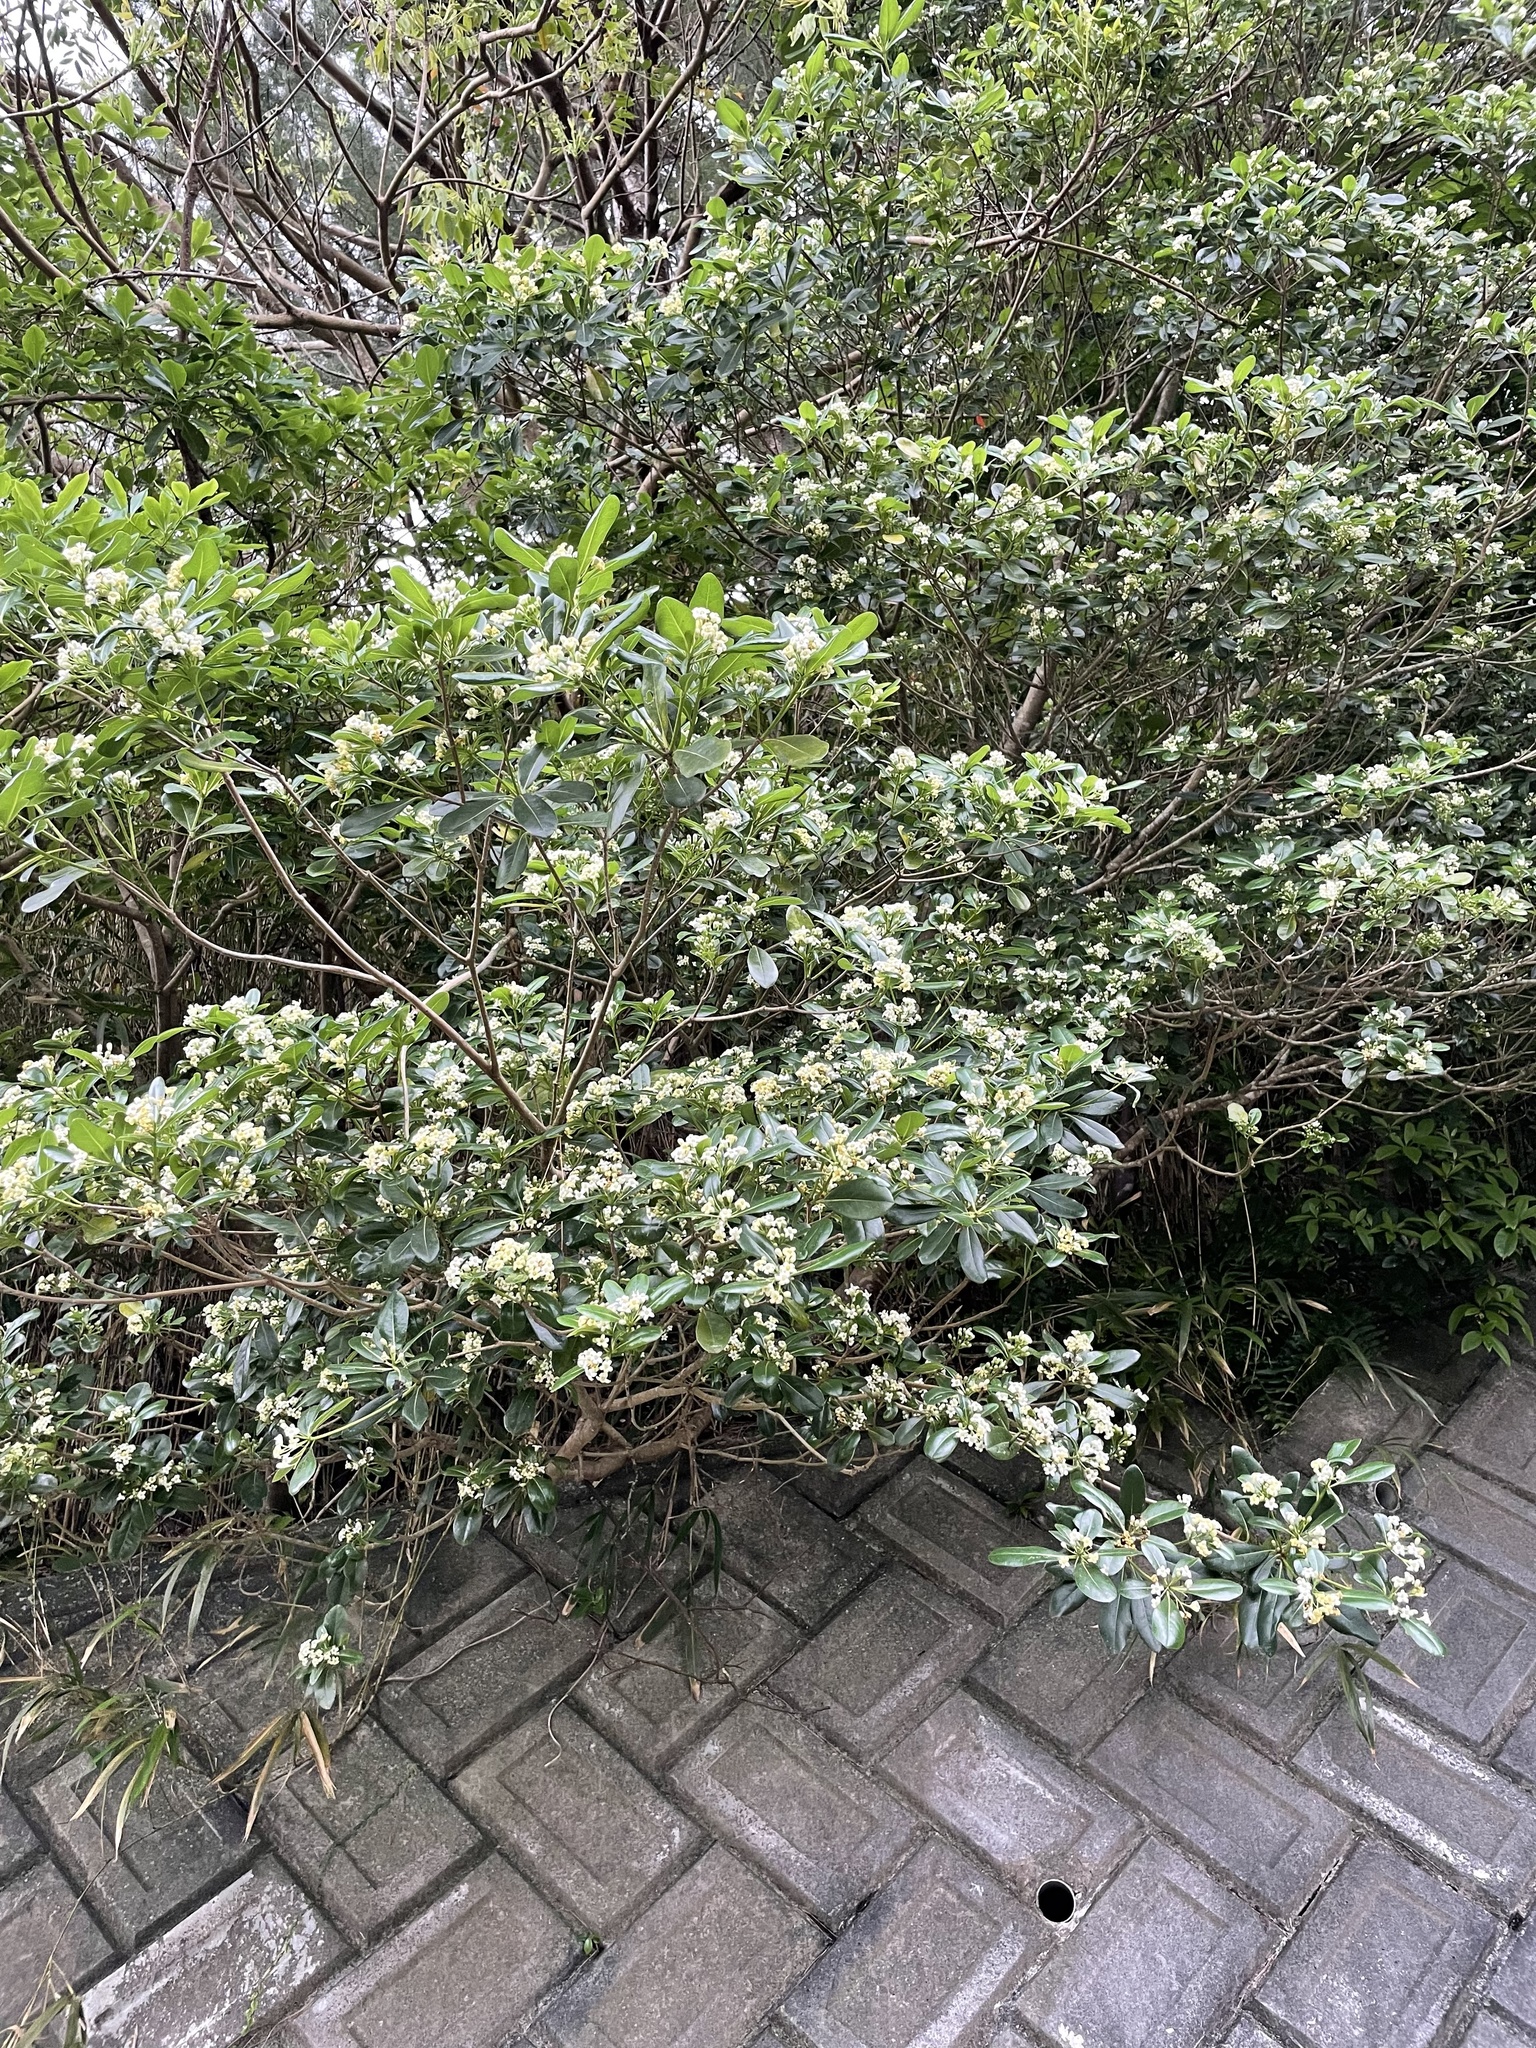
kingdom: Plantae
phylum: Tracheophyta
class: Magnoliopsida
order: Apiales
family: Pittosporaceae
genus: Pittosporum
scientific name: Pittosporum tobira
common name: Japanese cheesewood
